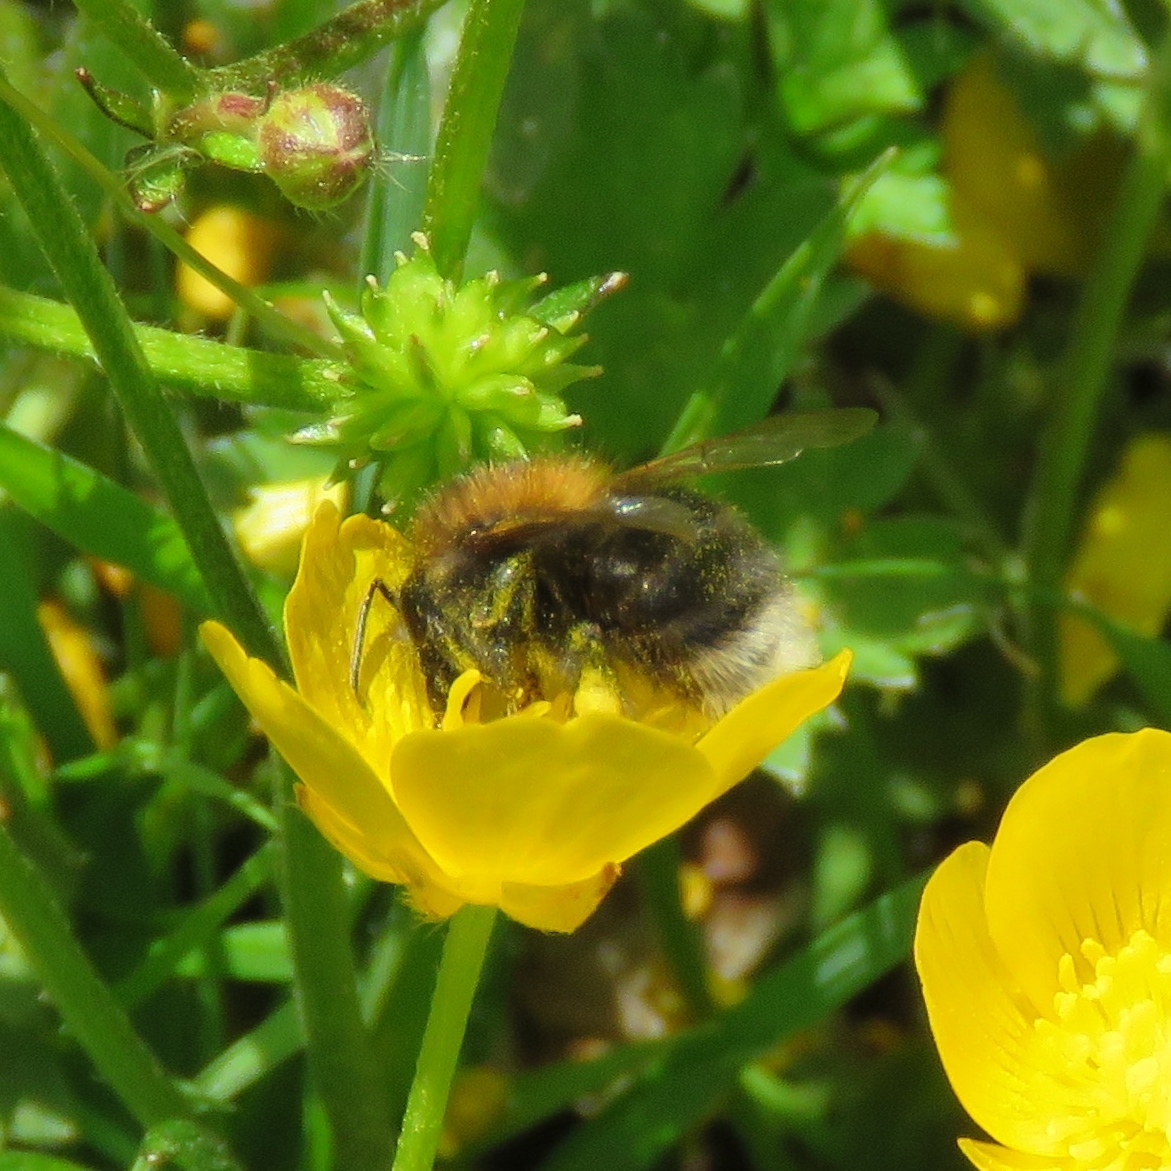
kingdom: Animalia
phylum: Arthropoda
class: Insecta
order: Hymenoptera
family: Apidae
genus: Bombus
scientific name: Bombus hypnorum
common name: New garden bumblebee
